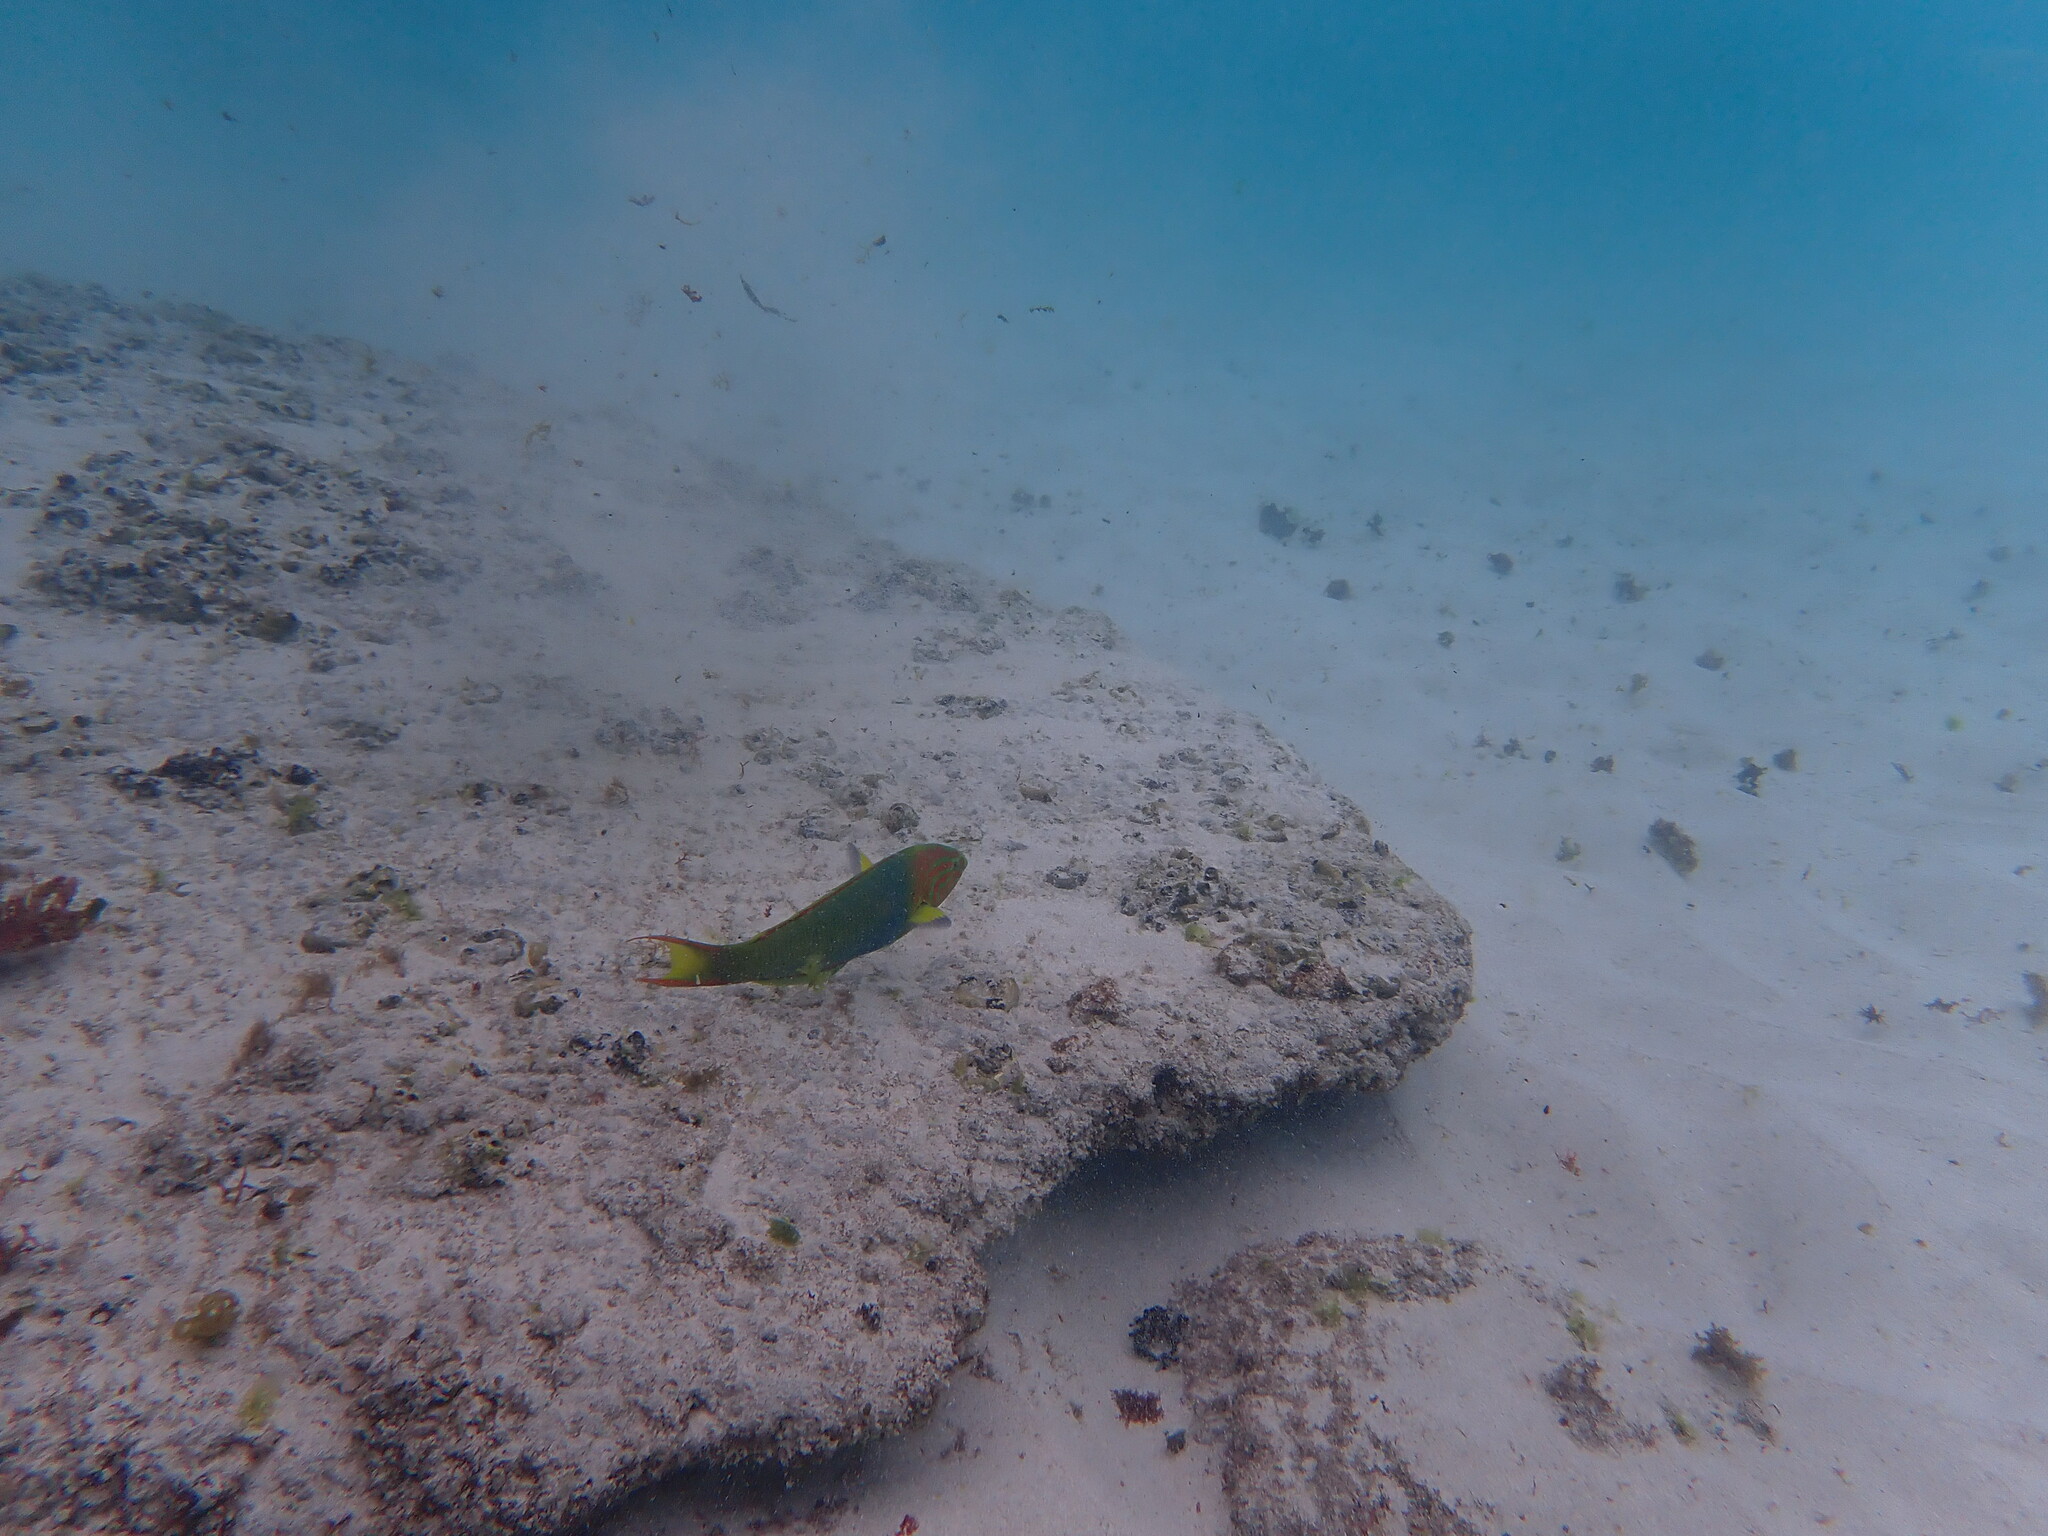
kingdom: Animalia
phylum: Chordata
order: Perciformes
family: Labridae
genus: Thalassoma
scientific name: Thalassoma lutescens
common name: Green moon wrasse
